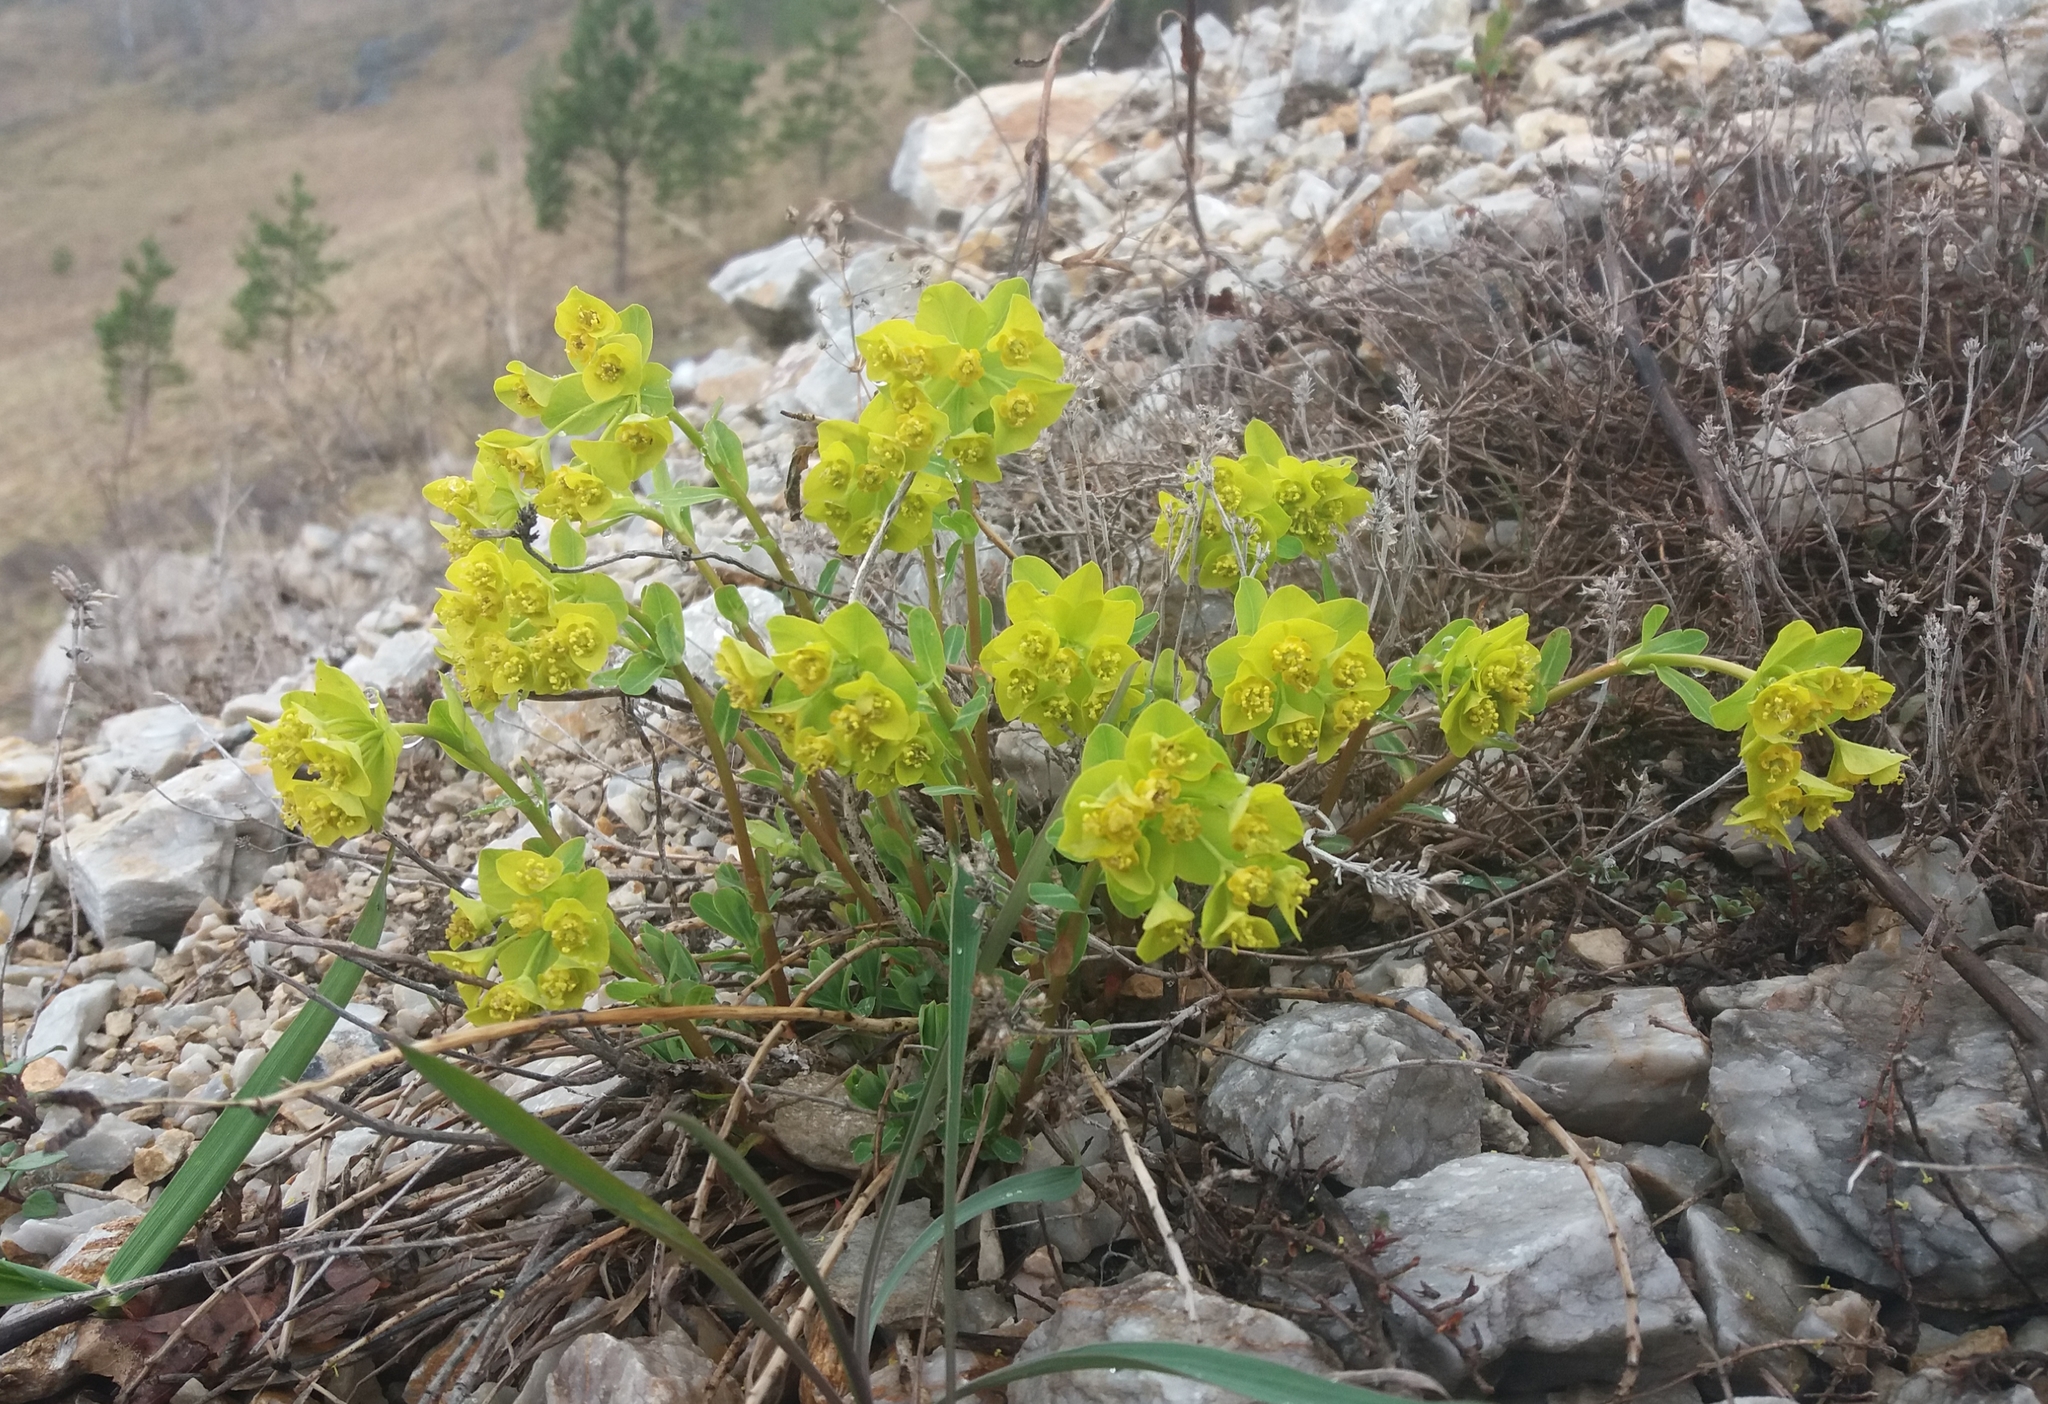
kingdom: Plantae
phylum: Tracheophyta
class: Magnoliopsida
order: Malpighiales
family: Euphorbiaceae
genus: Euphorbia
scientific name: Euphorbia altaica
